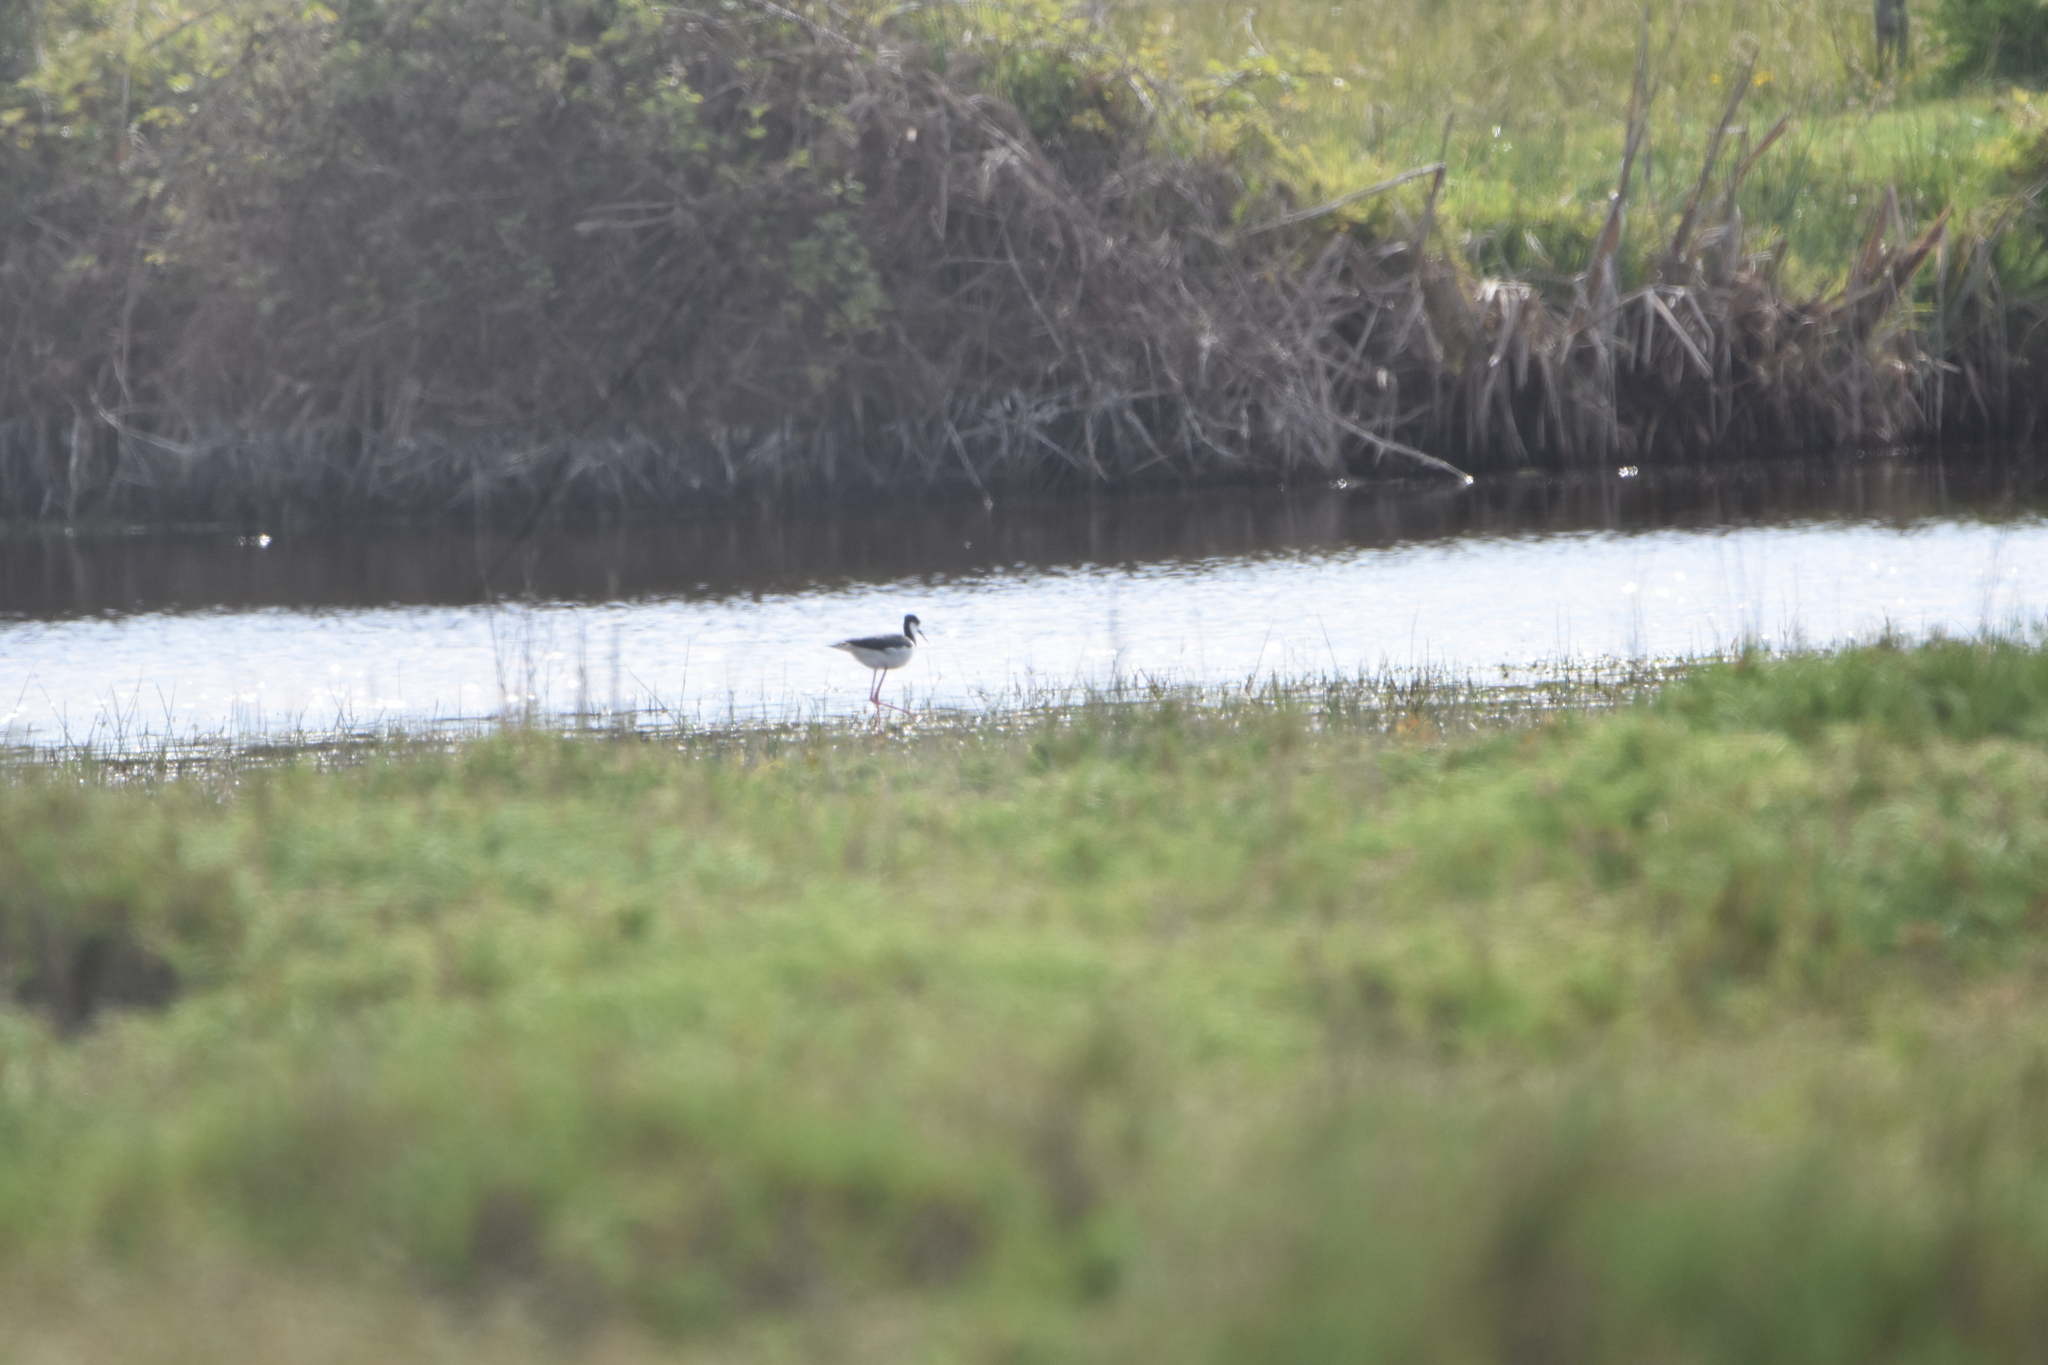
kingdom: Animalia
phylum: Chordata
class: Aves
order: Charadriiformes
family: Recurvirostridae
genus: Himantopus
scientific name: Himantopus mexicanus
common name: Black-necked stilt
